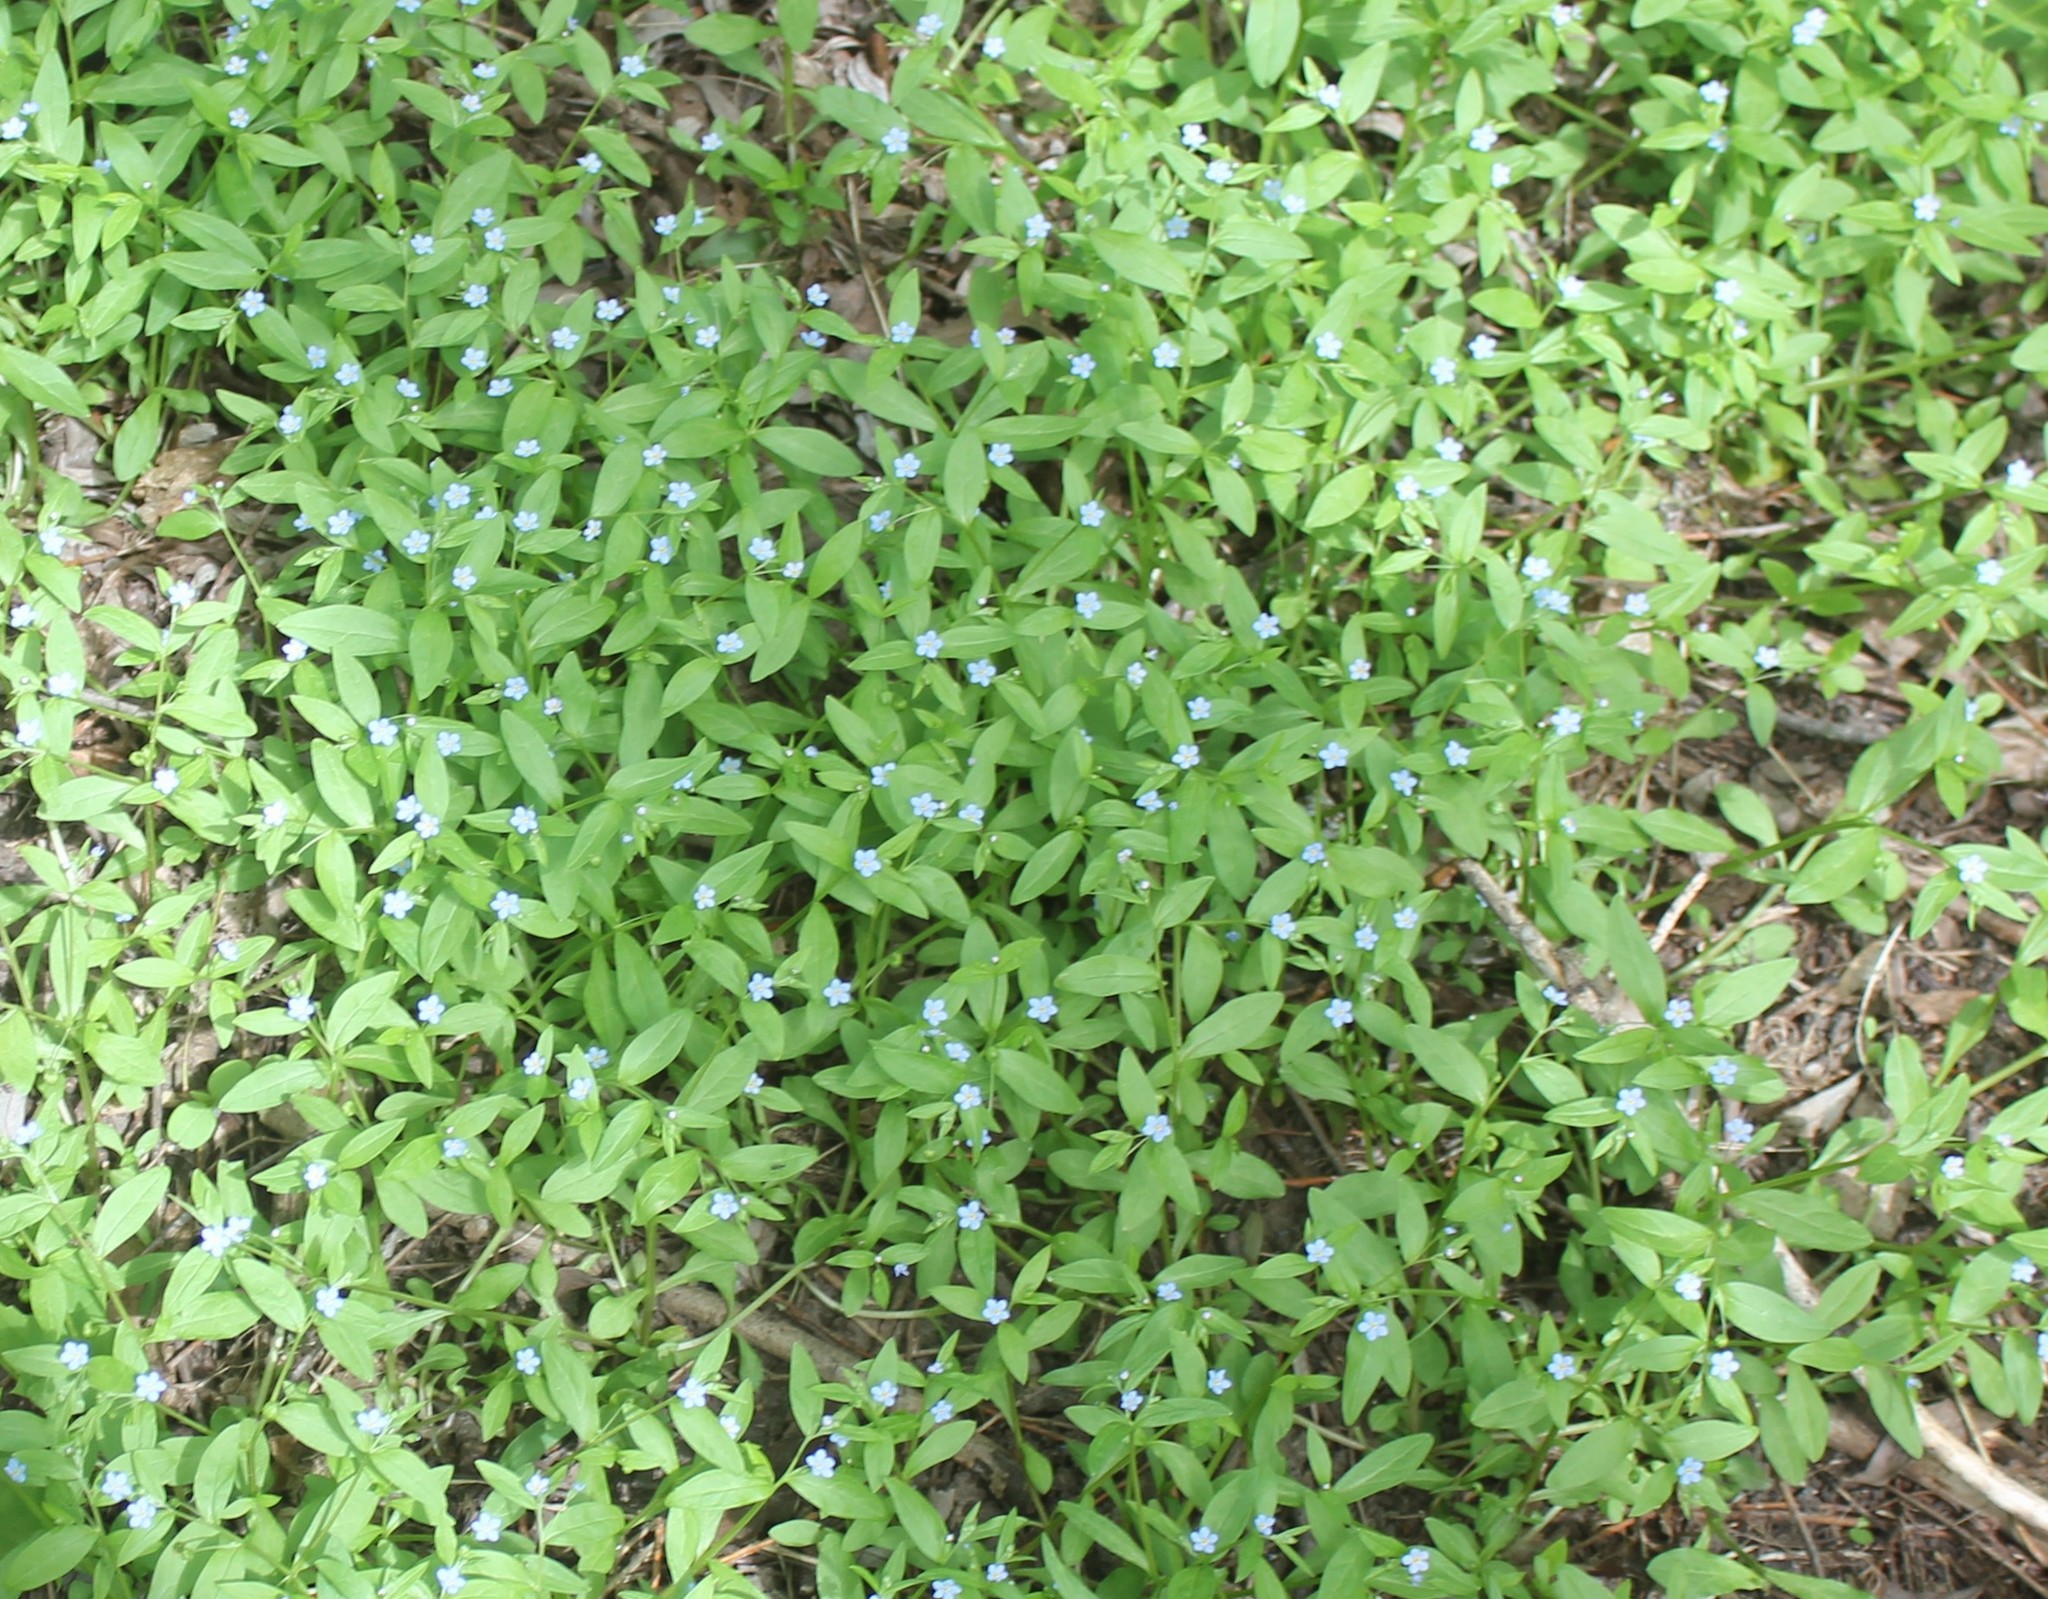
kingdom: Plantae
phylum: Tracheophyta
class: Magnoliopsida
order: Boraginales
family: Boraginaceae
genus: Memoremea
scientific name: Memoremea scorpioides
